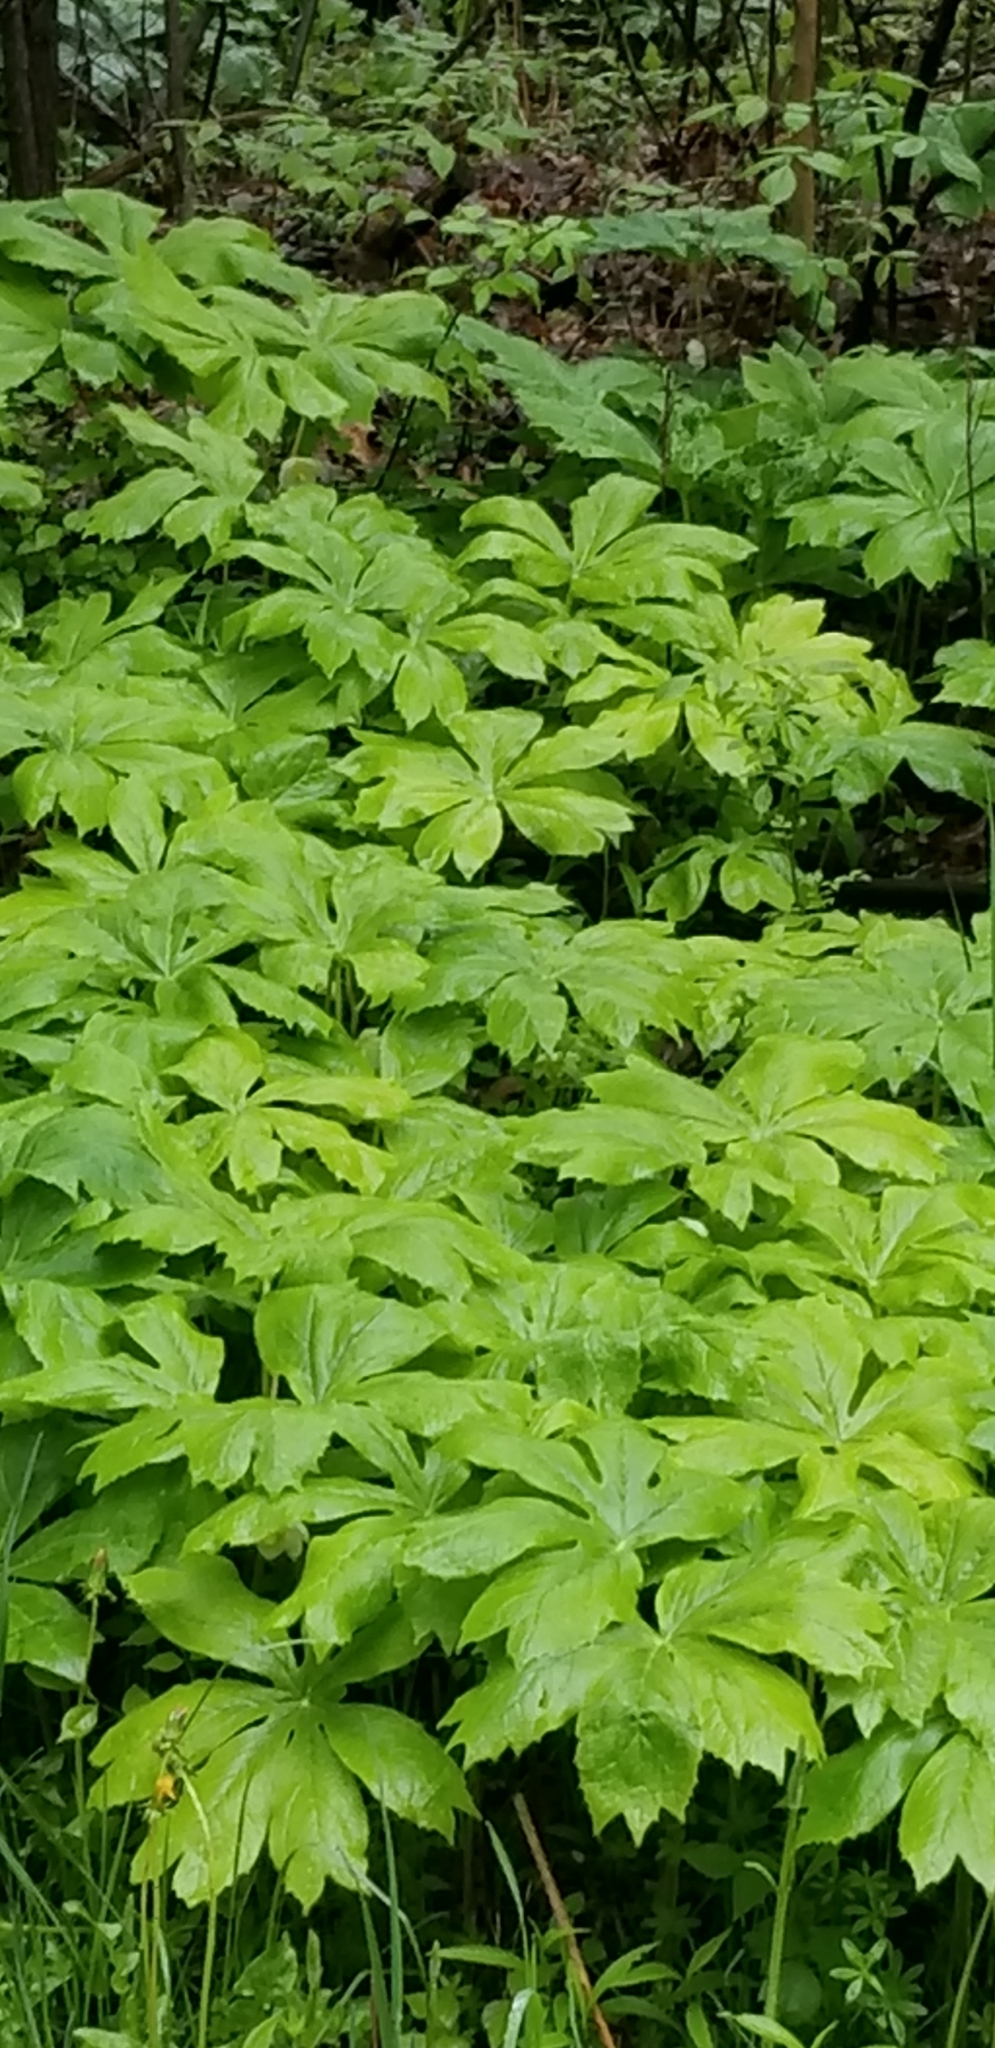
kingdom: Plantae
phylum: Tracheophyta
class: Magnoliopsida
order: Ranunculales
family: Berberidaceae
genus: Podophyllum
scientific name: Podophyllum peltatum
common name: Wild mandrake
